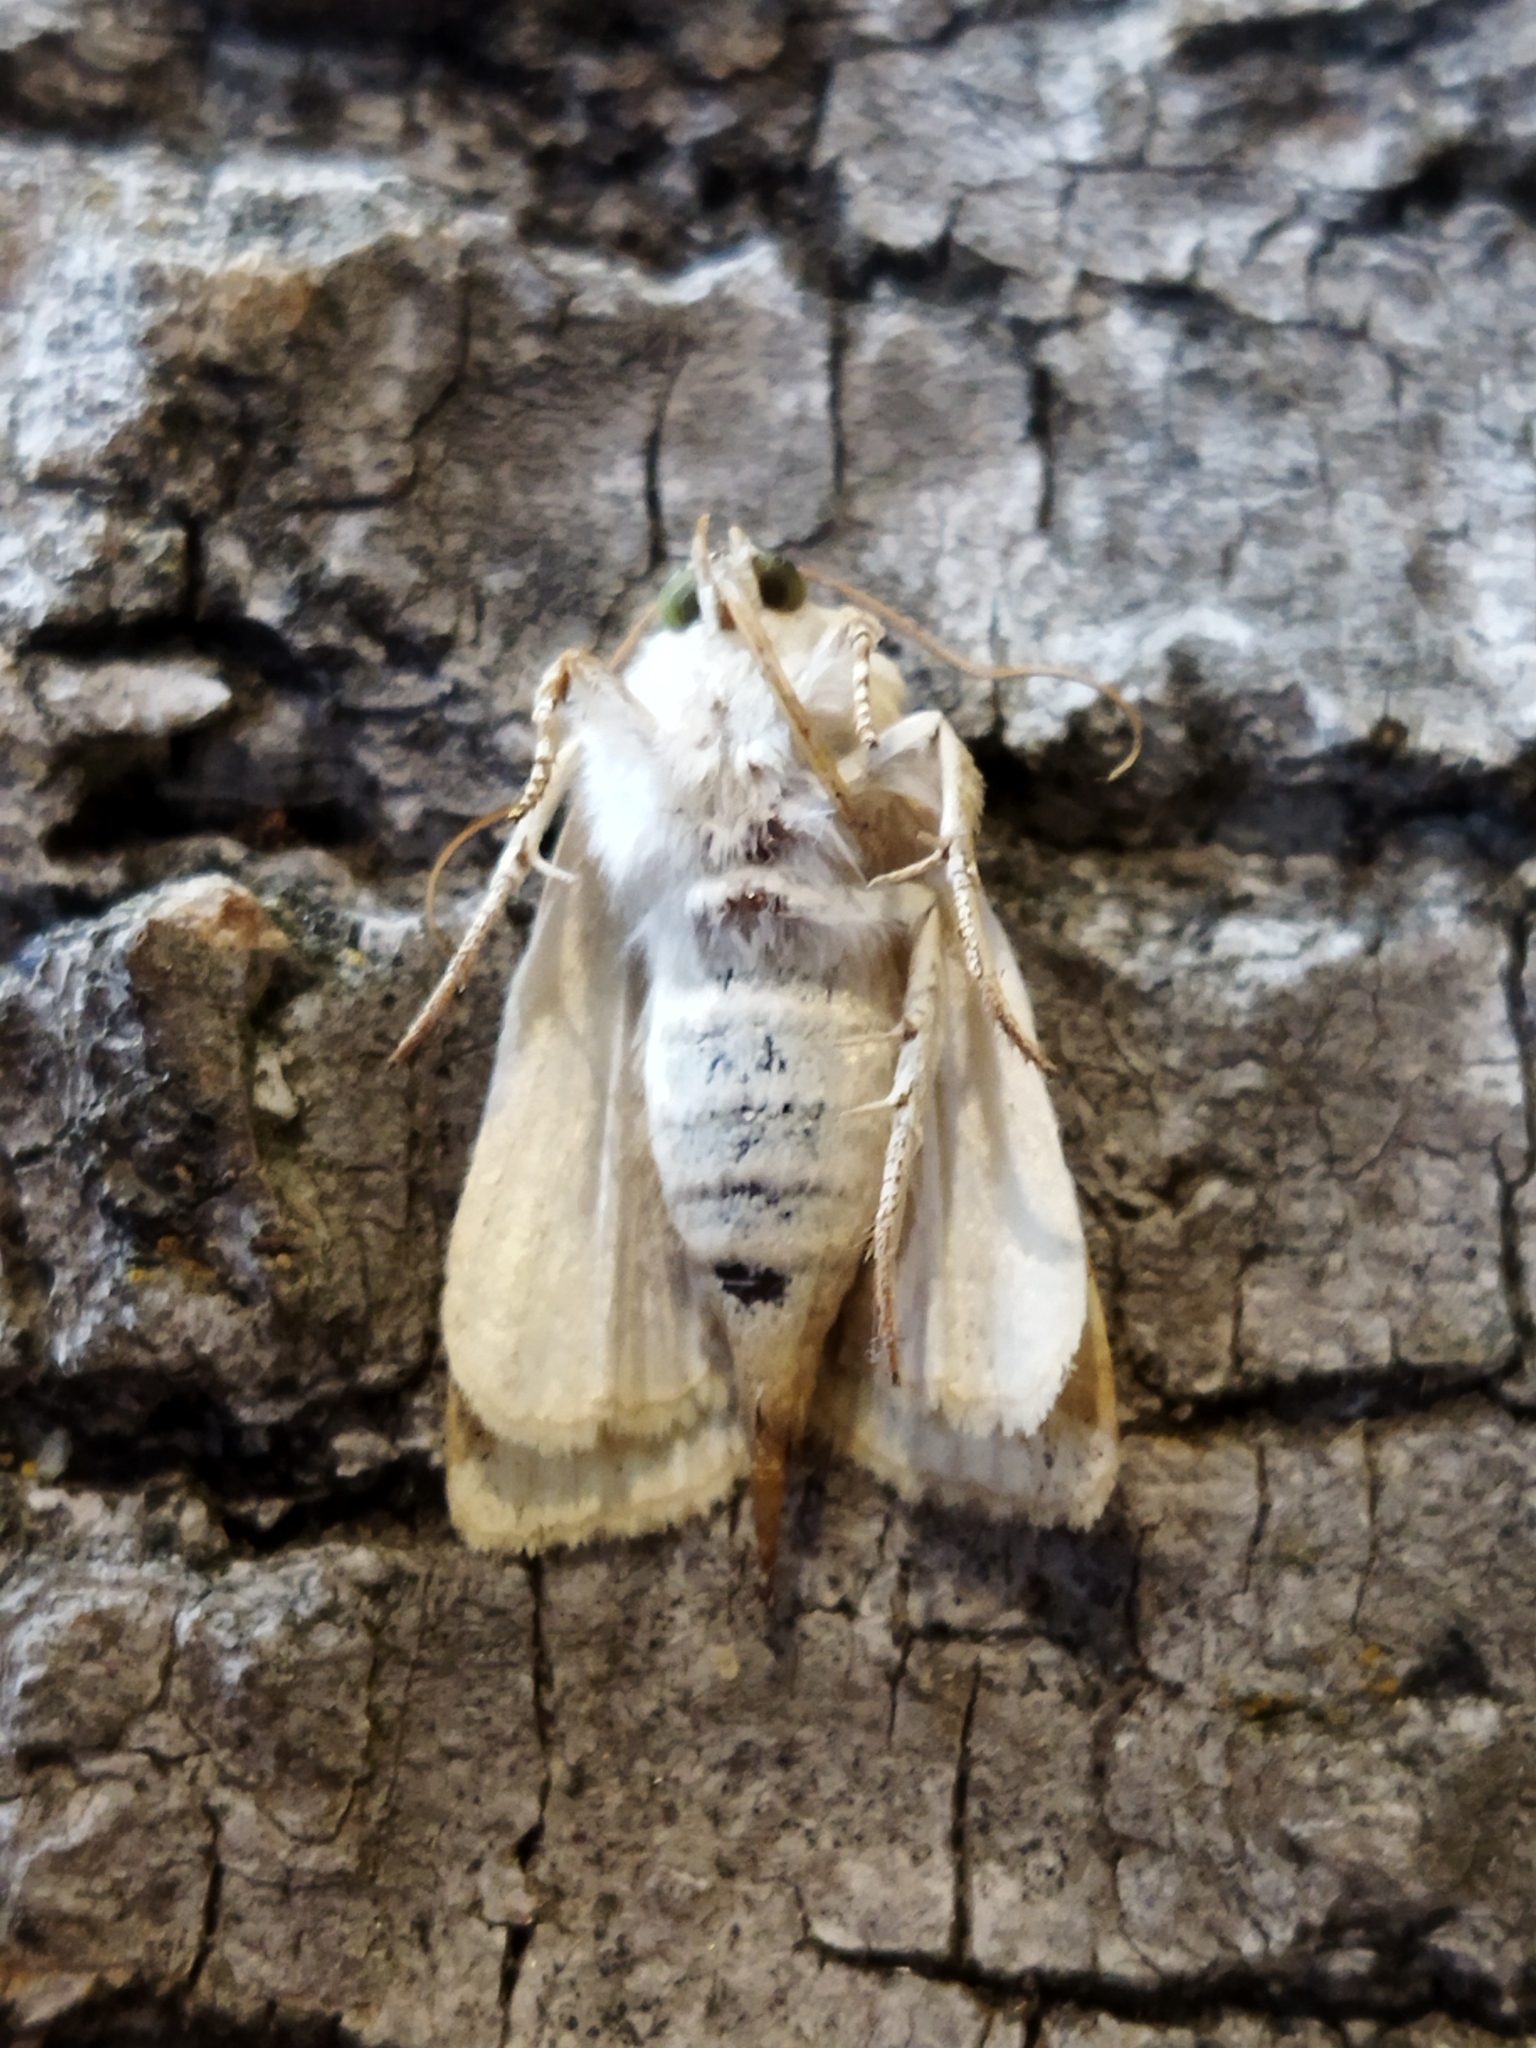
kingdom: Animalia
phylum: Arthropoda
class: Insecta
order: Lepidoptera
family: Noctuidae
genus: Dicycla
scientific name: Dicycla oo
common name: Heart moth
